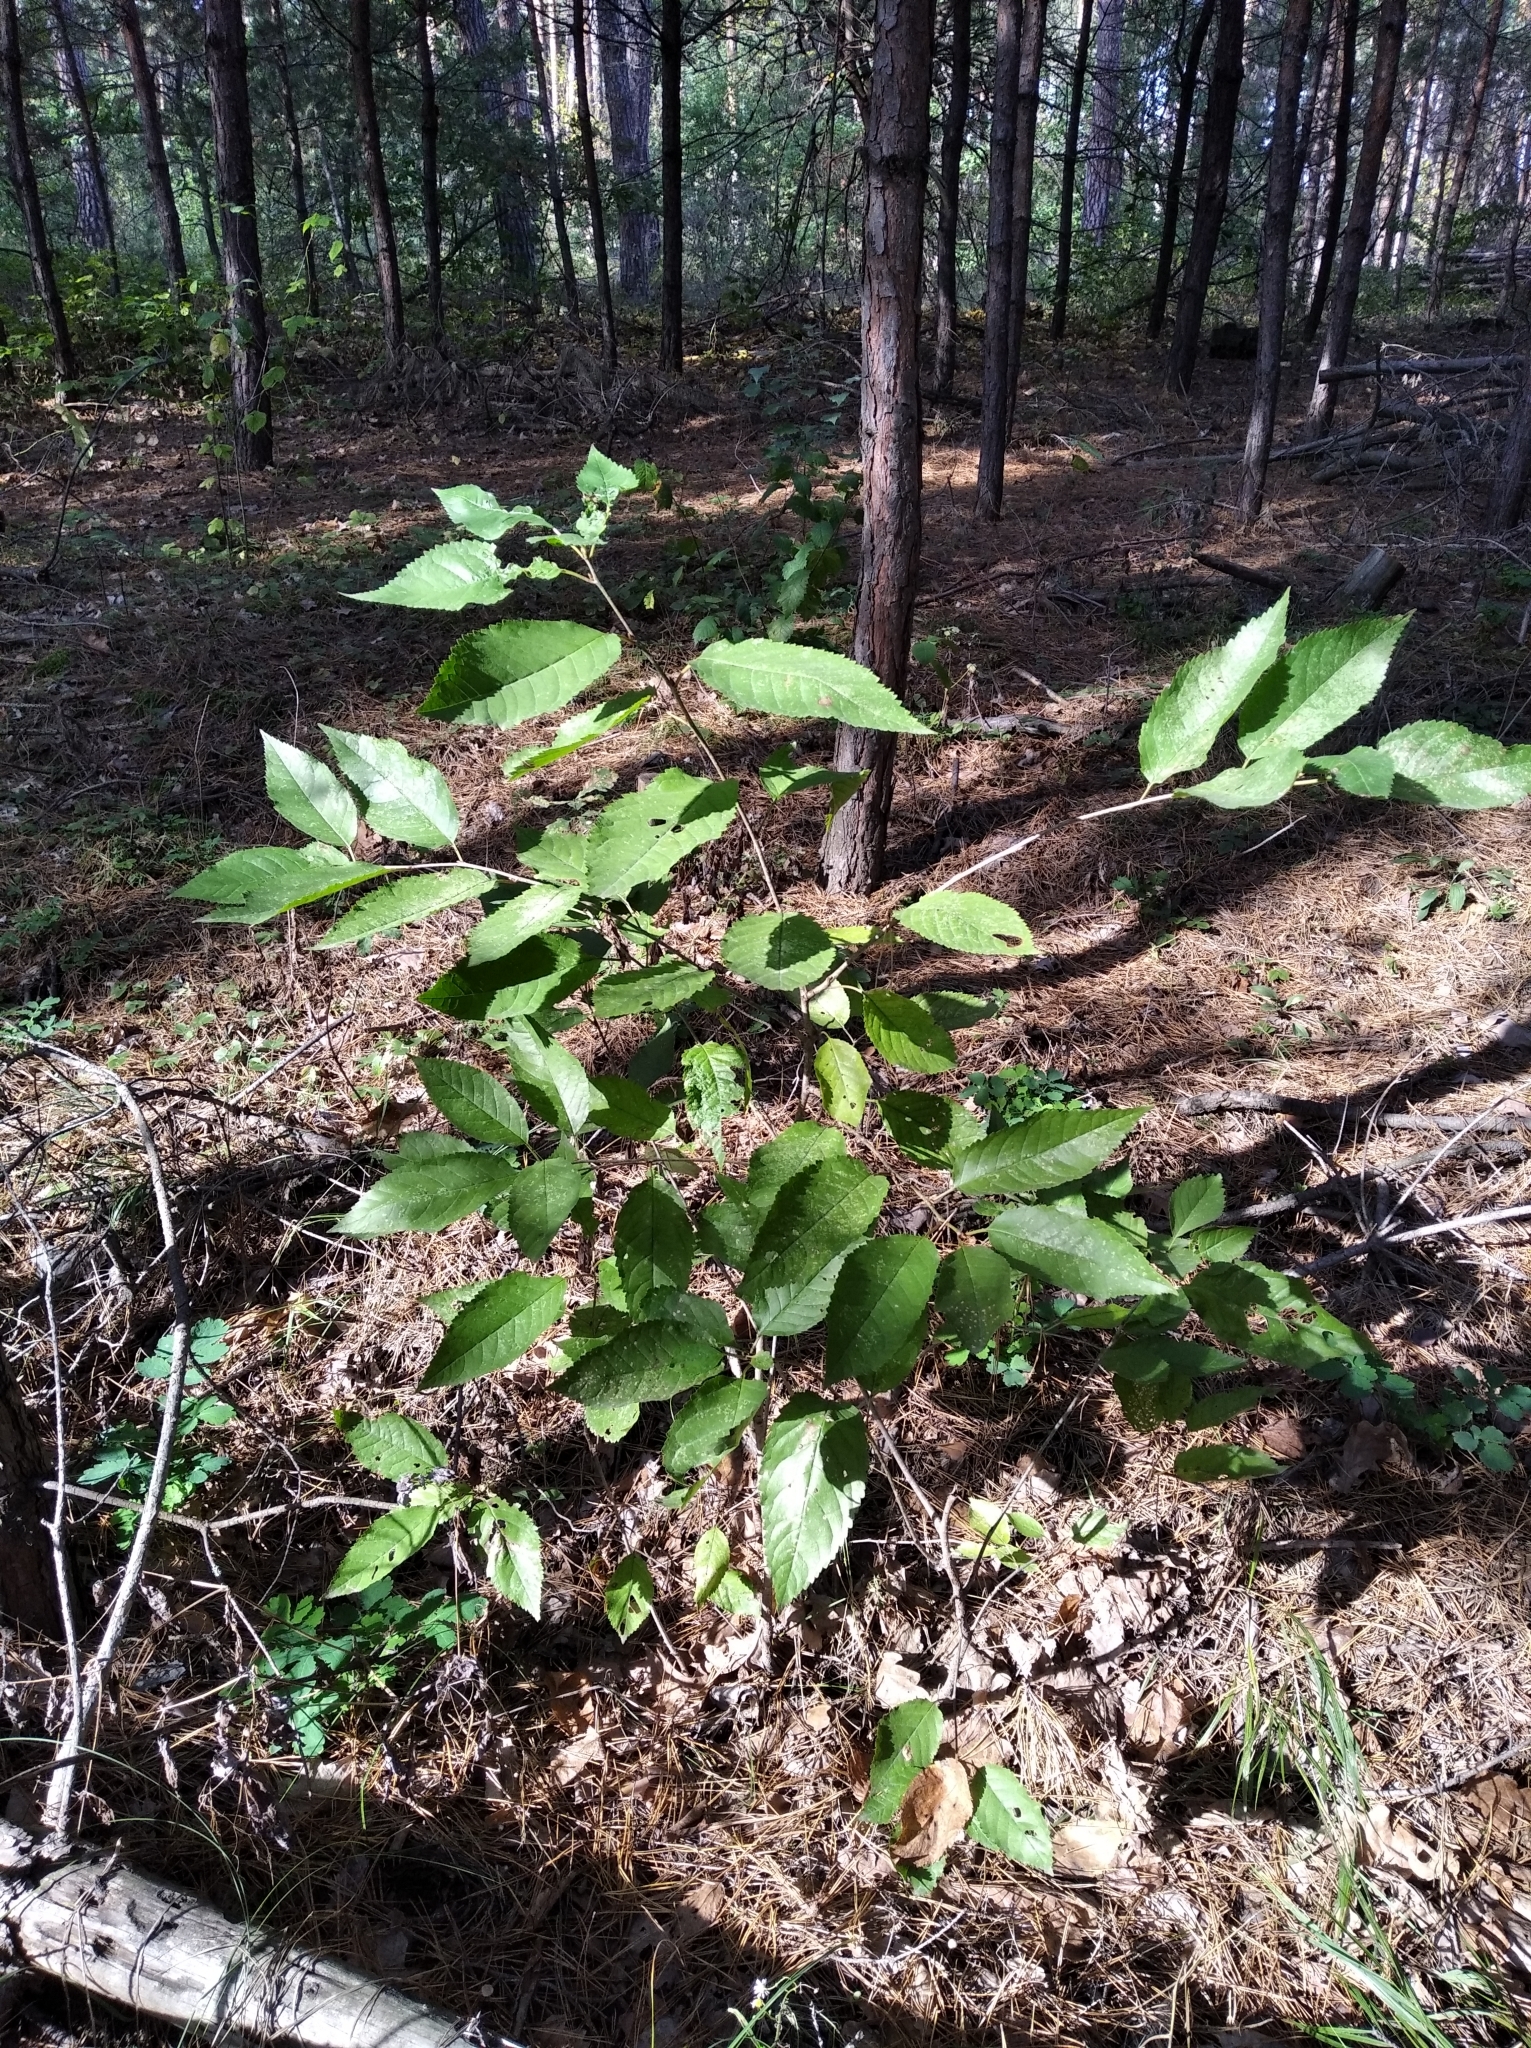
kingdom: Plantae
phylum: Tracheophyta
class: Magnoliopsida
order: Rosales
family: Rosaceae
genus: Prunus
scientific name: Prunus avium
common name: Sweet cherry
